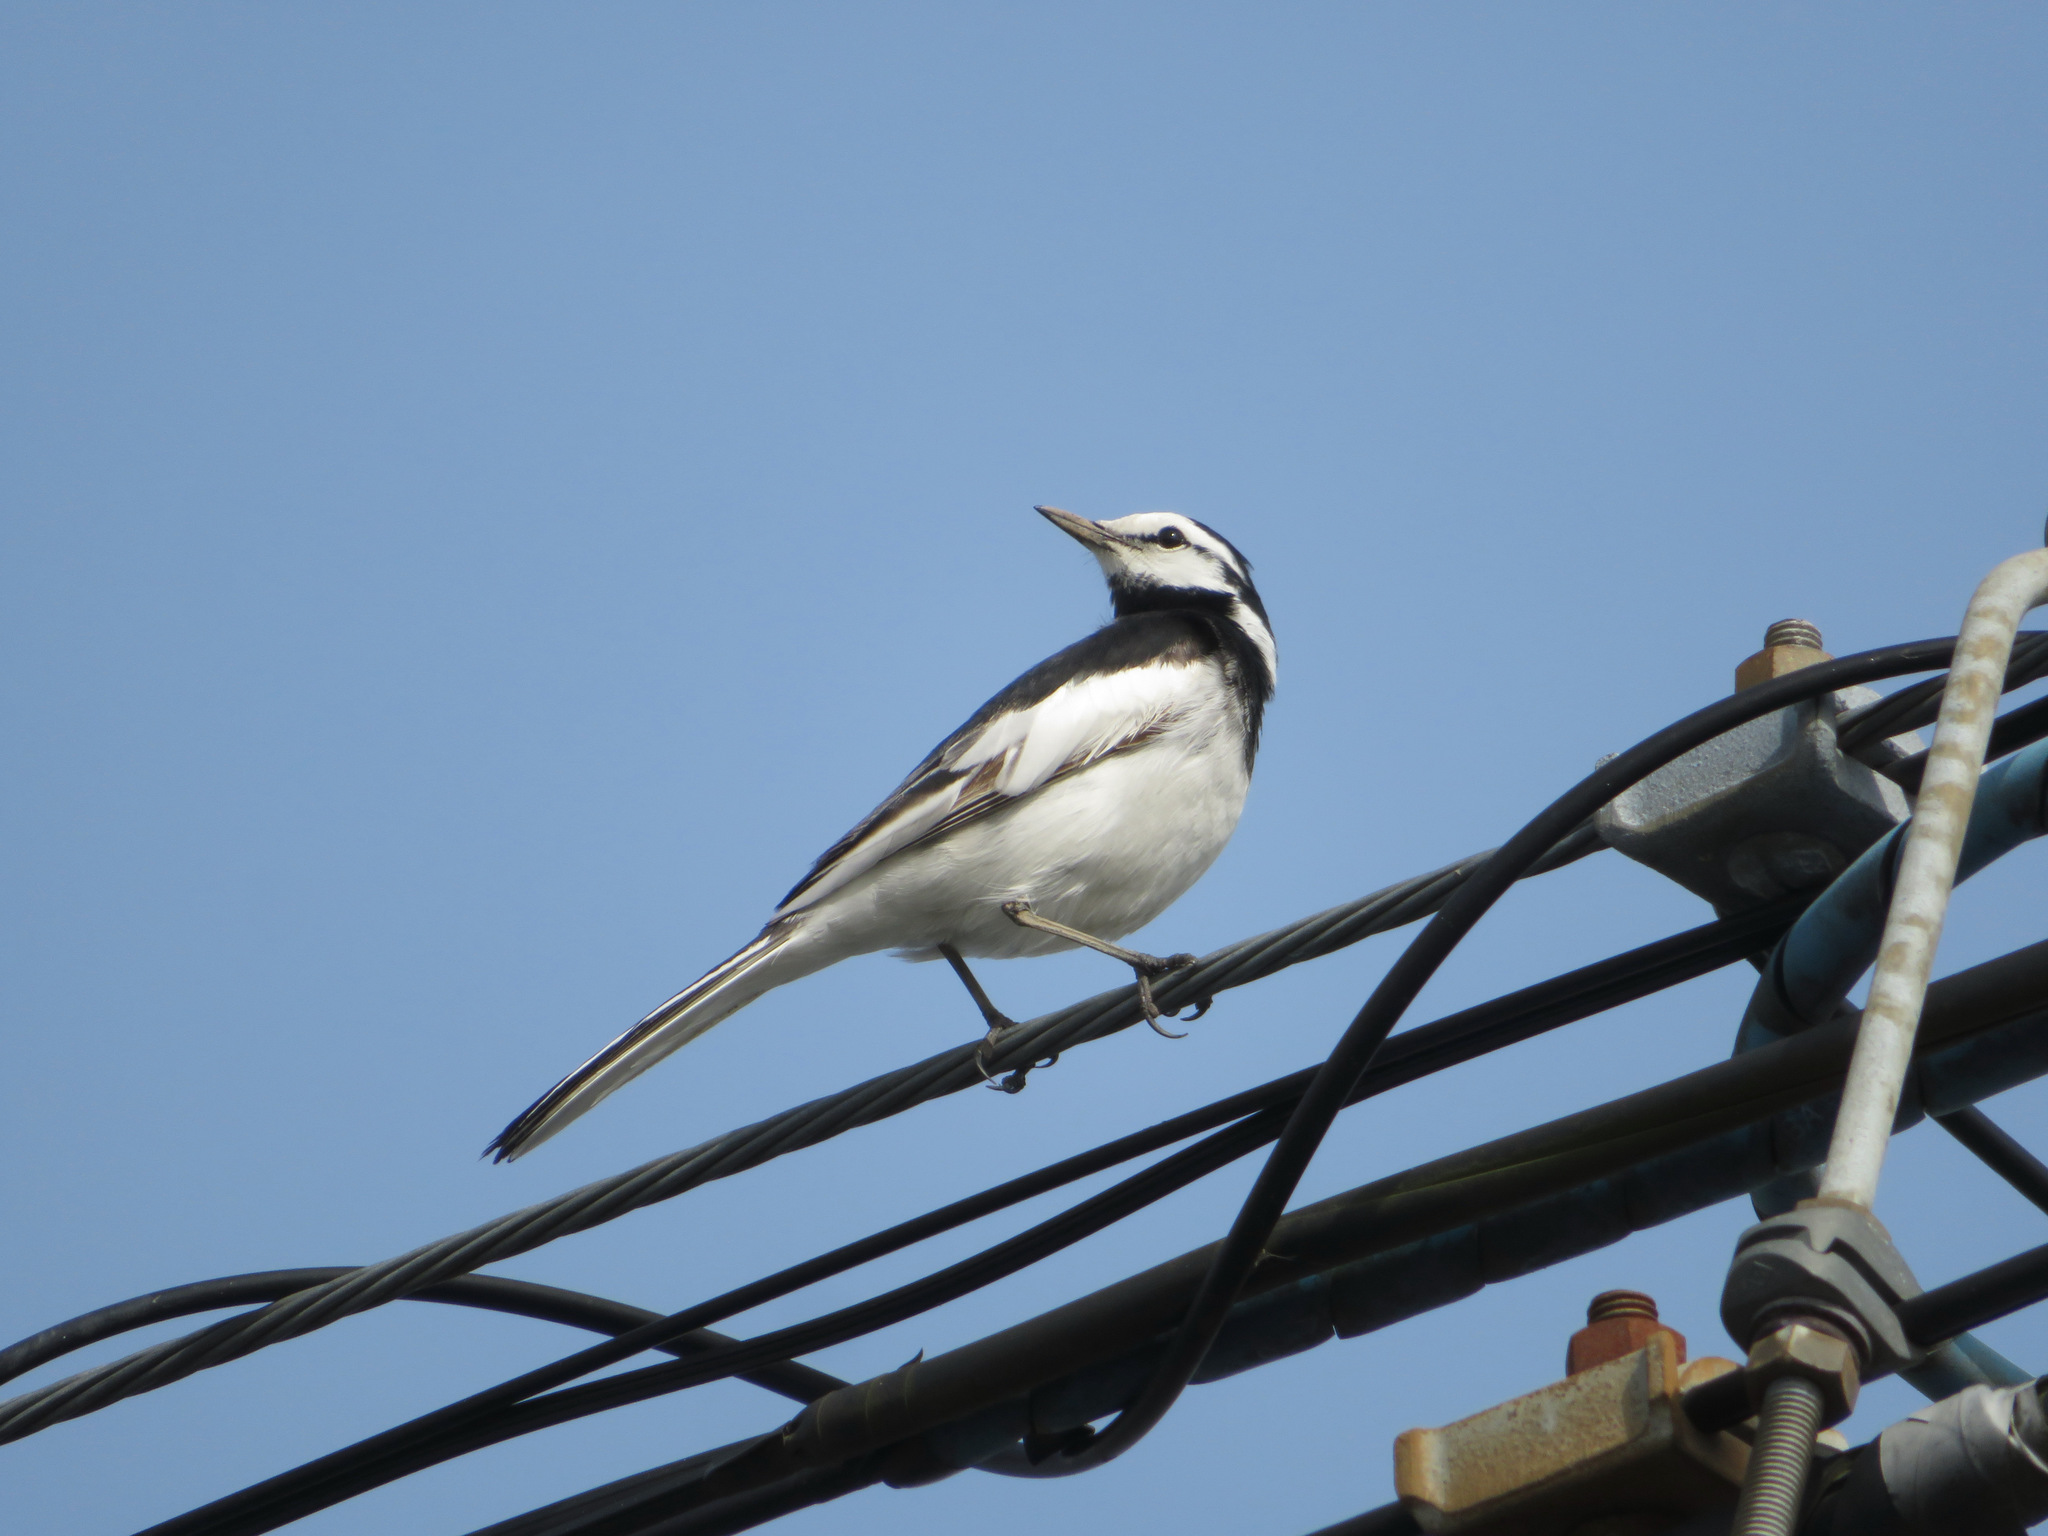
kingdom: Animalia
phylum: Chordata
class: Aves
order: Passeriformes
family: Motacillidae
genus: Motacilla
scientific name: Motacilla alba
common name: White wagtail
